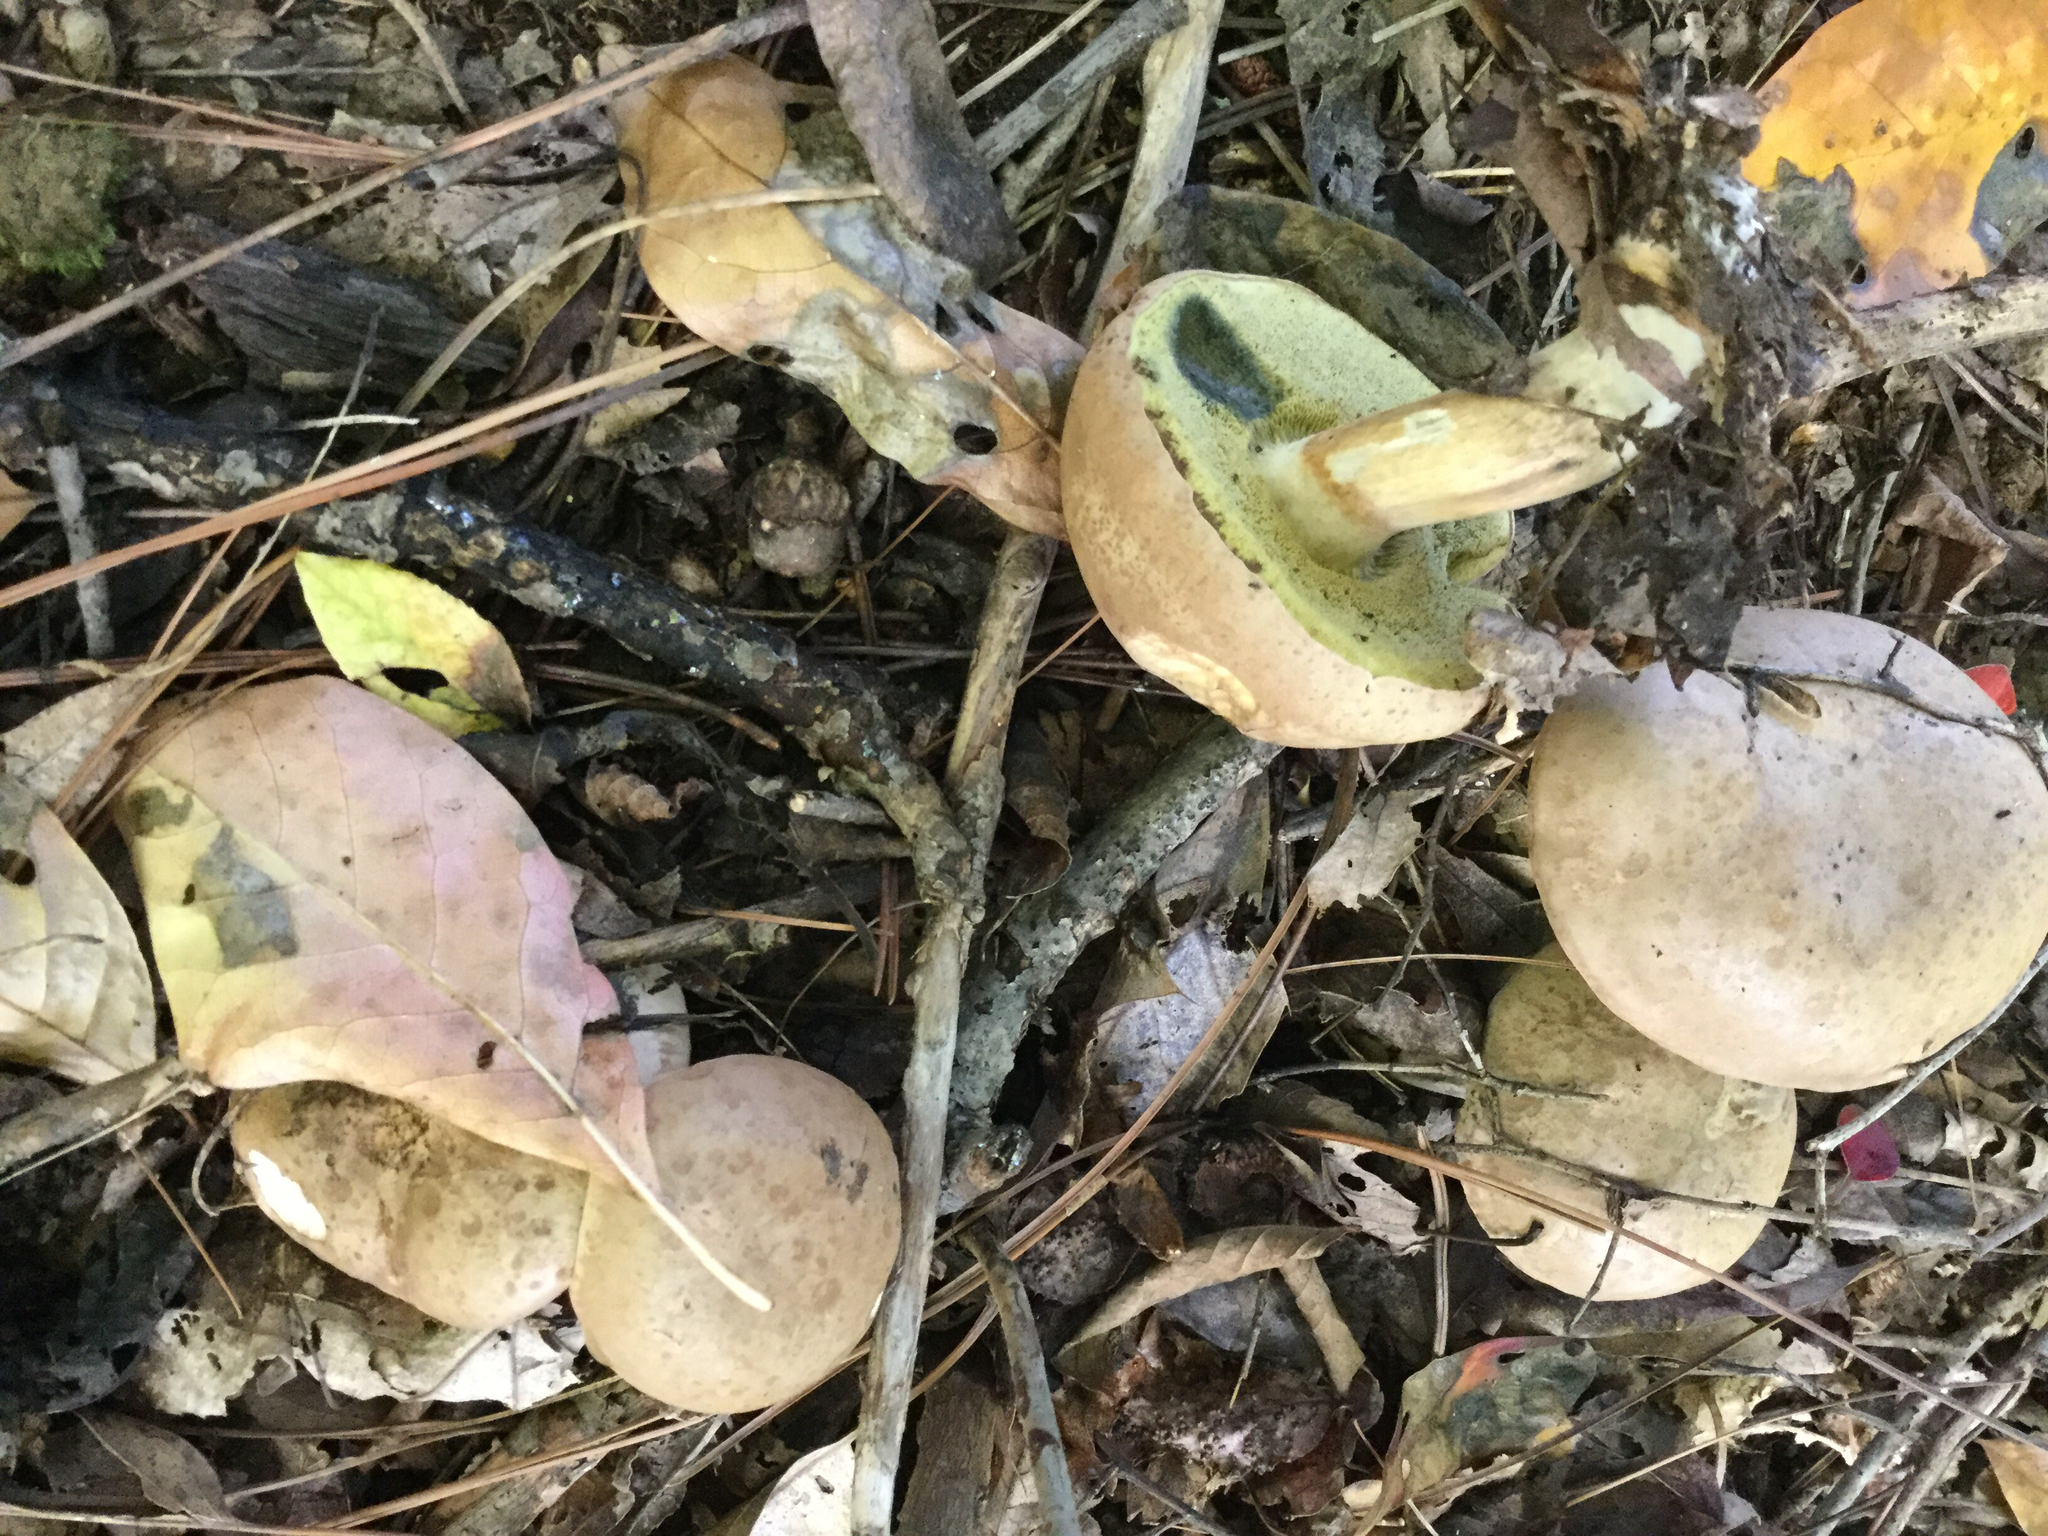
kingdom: Fungi
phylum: Basidiomycota
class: Agaricomycetes
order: Boletales
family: Boletaceae
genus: Imleria
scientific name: Imleria pallida
